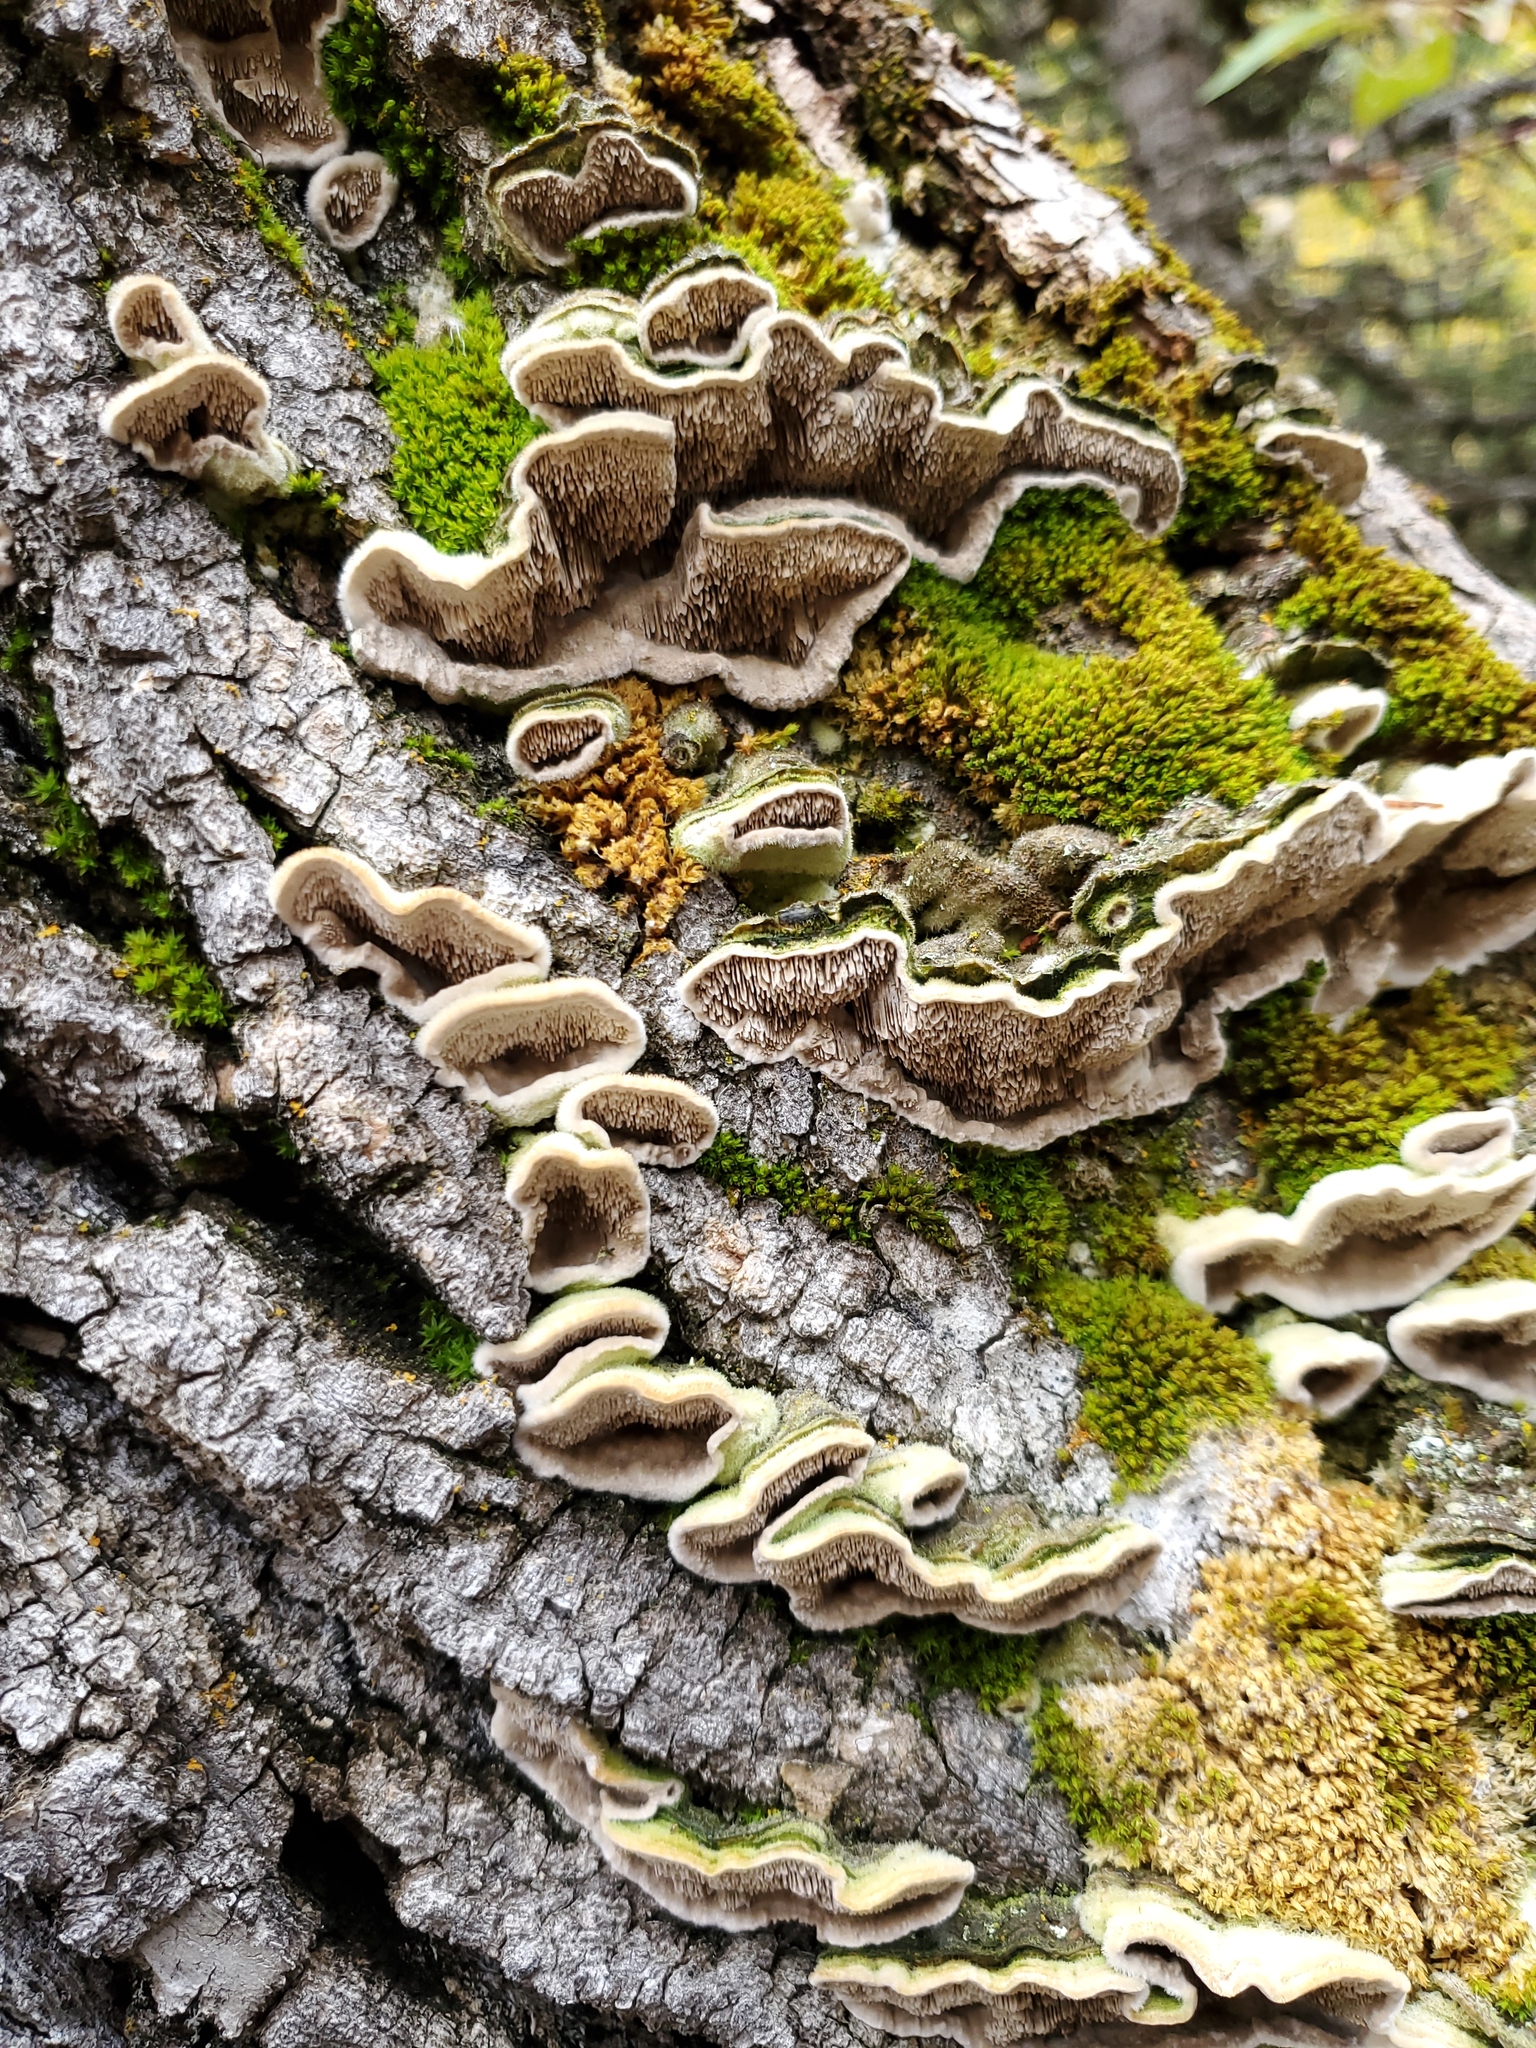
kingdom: Fungi
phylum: Basidiomycota
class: Agaricomycetes
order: Polyporales
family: Cerrenaceae
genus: Cerrena
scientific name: Cerrena unicolor
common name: Mossy maze polypore
